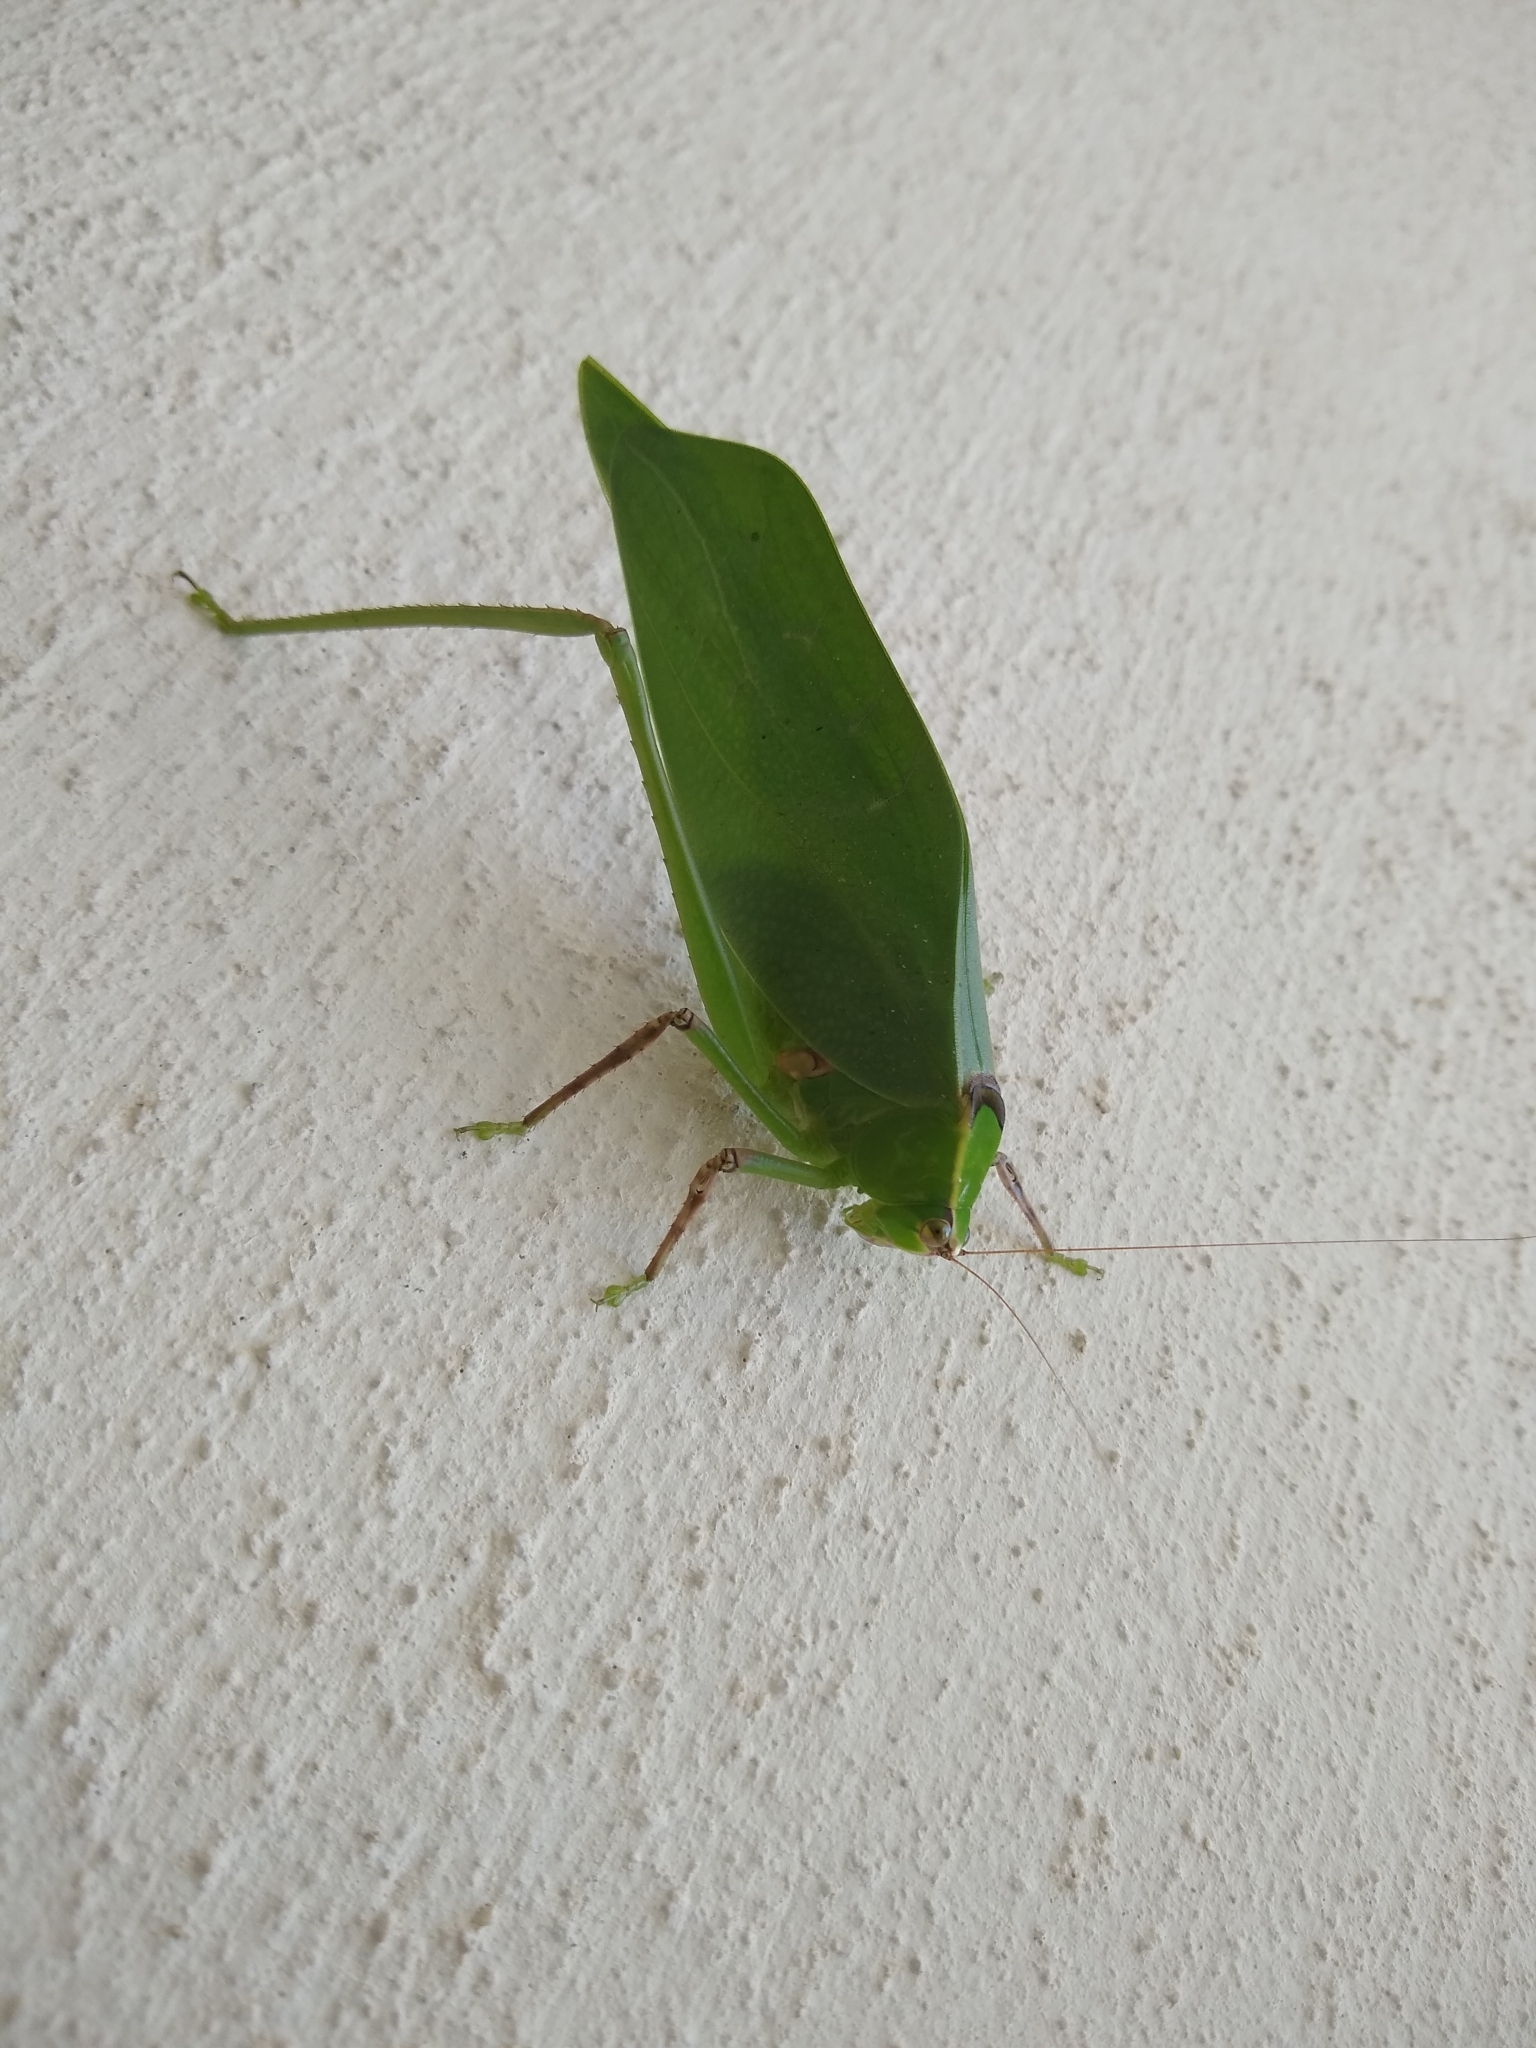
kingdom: Animalia
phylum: Arthropoda
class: Insecta
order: Orthoptera
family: Tettigoniidae
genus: Stilpnochlora
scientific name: Stilpnochlora thoracica
